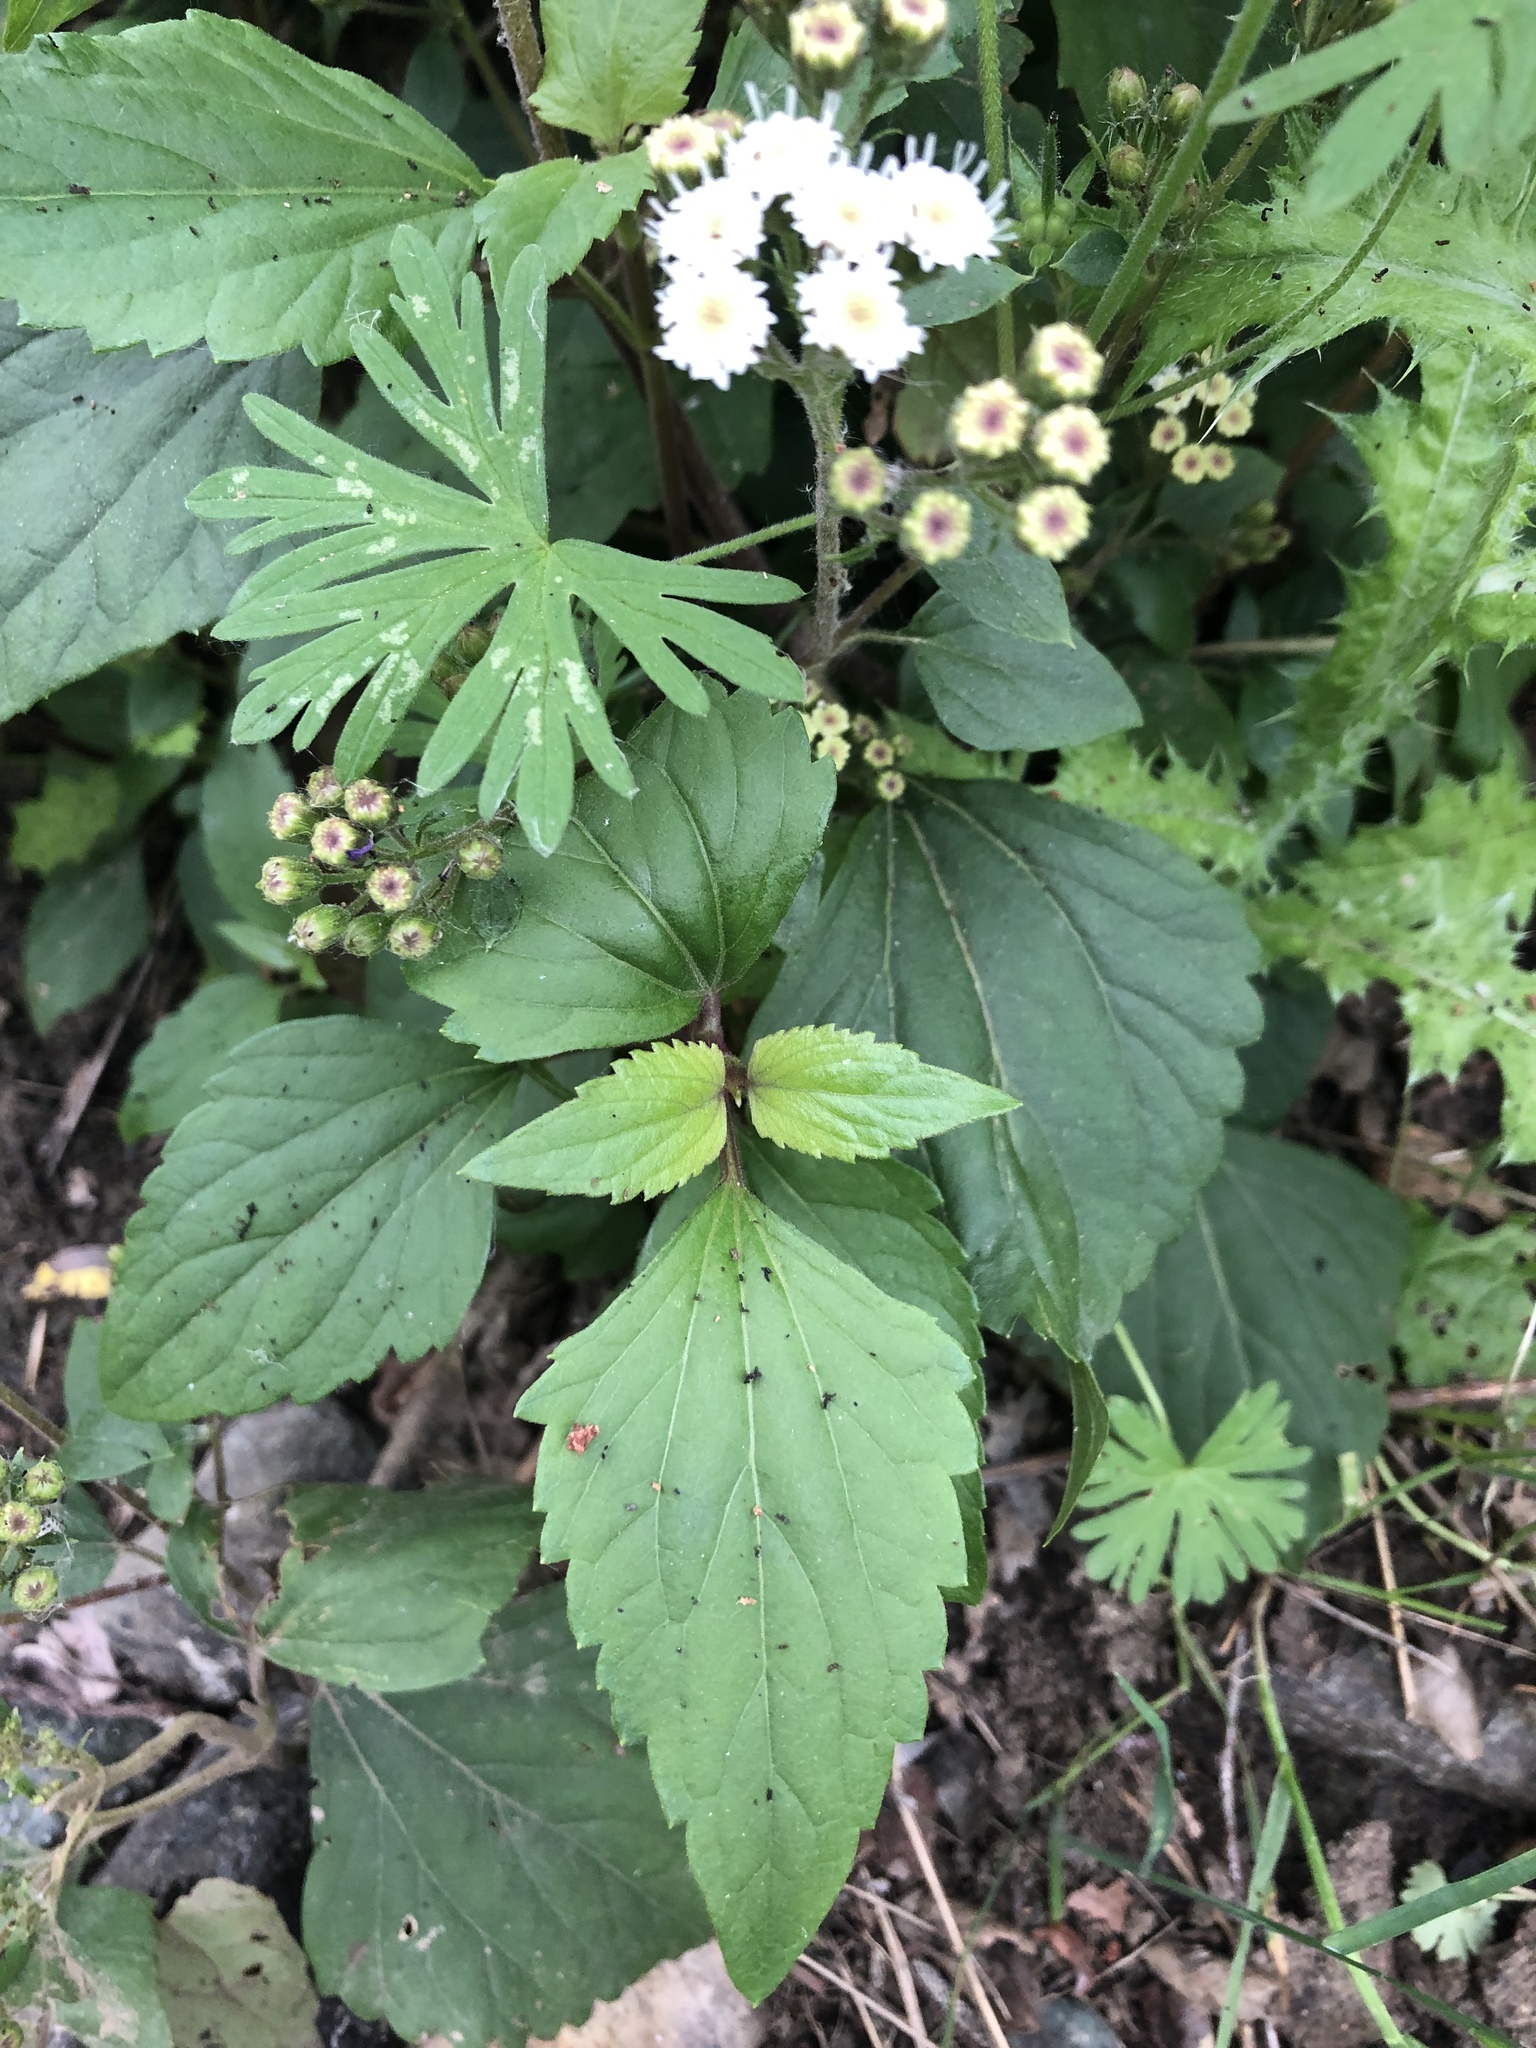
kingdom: Plantae
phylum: Tracheophyta
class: Magnoliopsida
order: Asterales
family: Asteraceae
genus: Ageratina
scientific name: Ageratina adenophora
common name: Sticky snakeroot
